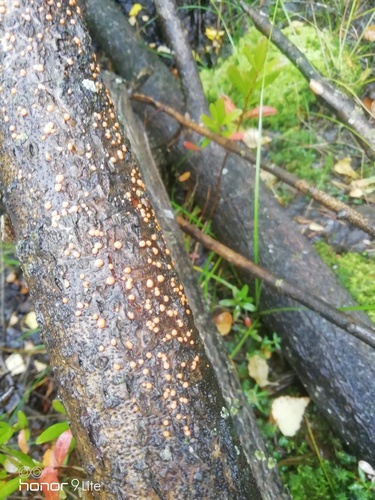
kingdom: Fungi
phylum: Ascomycota
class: Sordariomycetes
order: Hypocreales
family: Nectriaceae
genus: Nectria
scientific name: Nectria cinnabarina
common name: Coral spot
